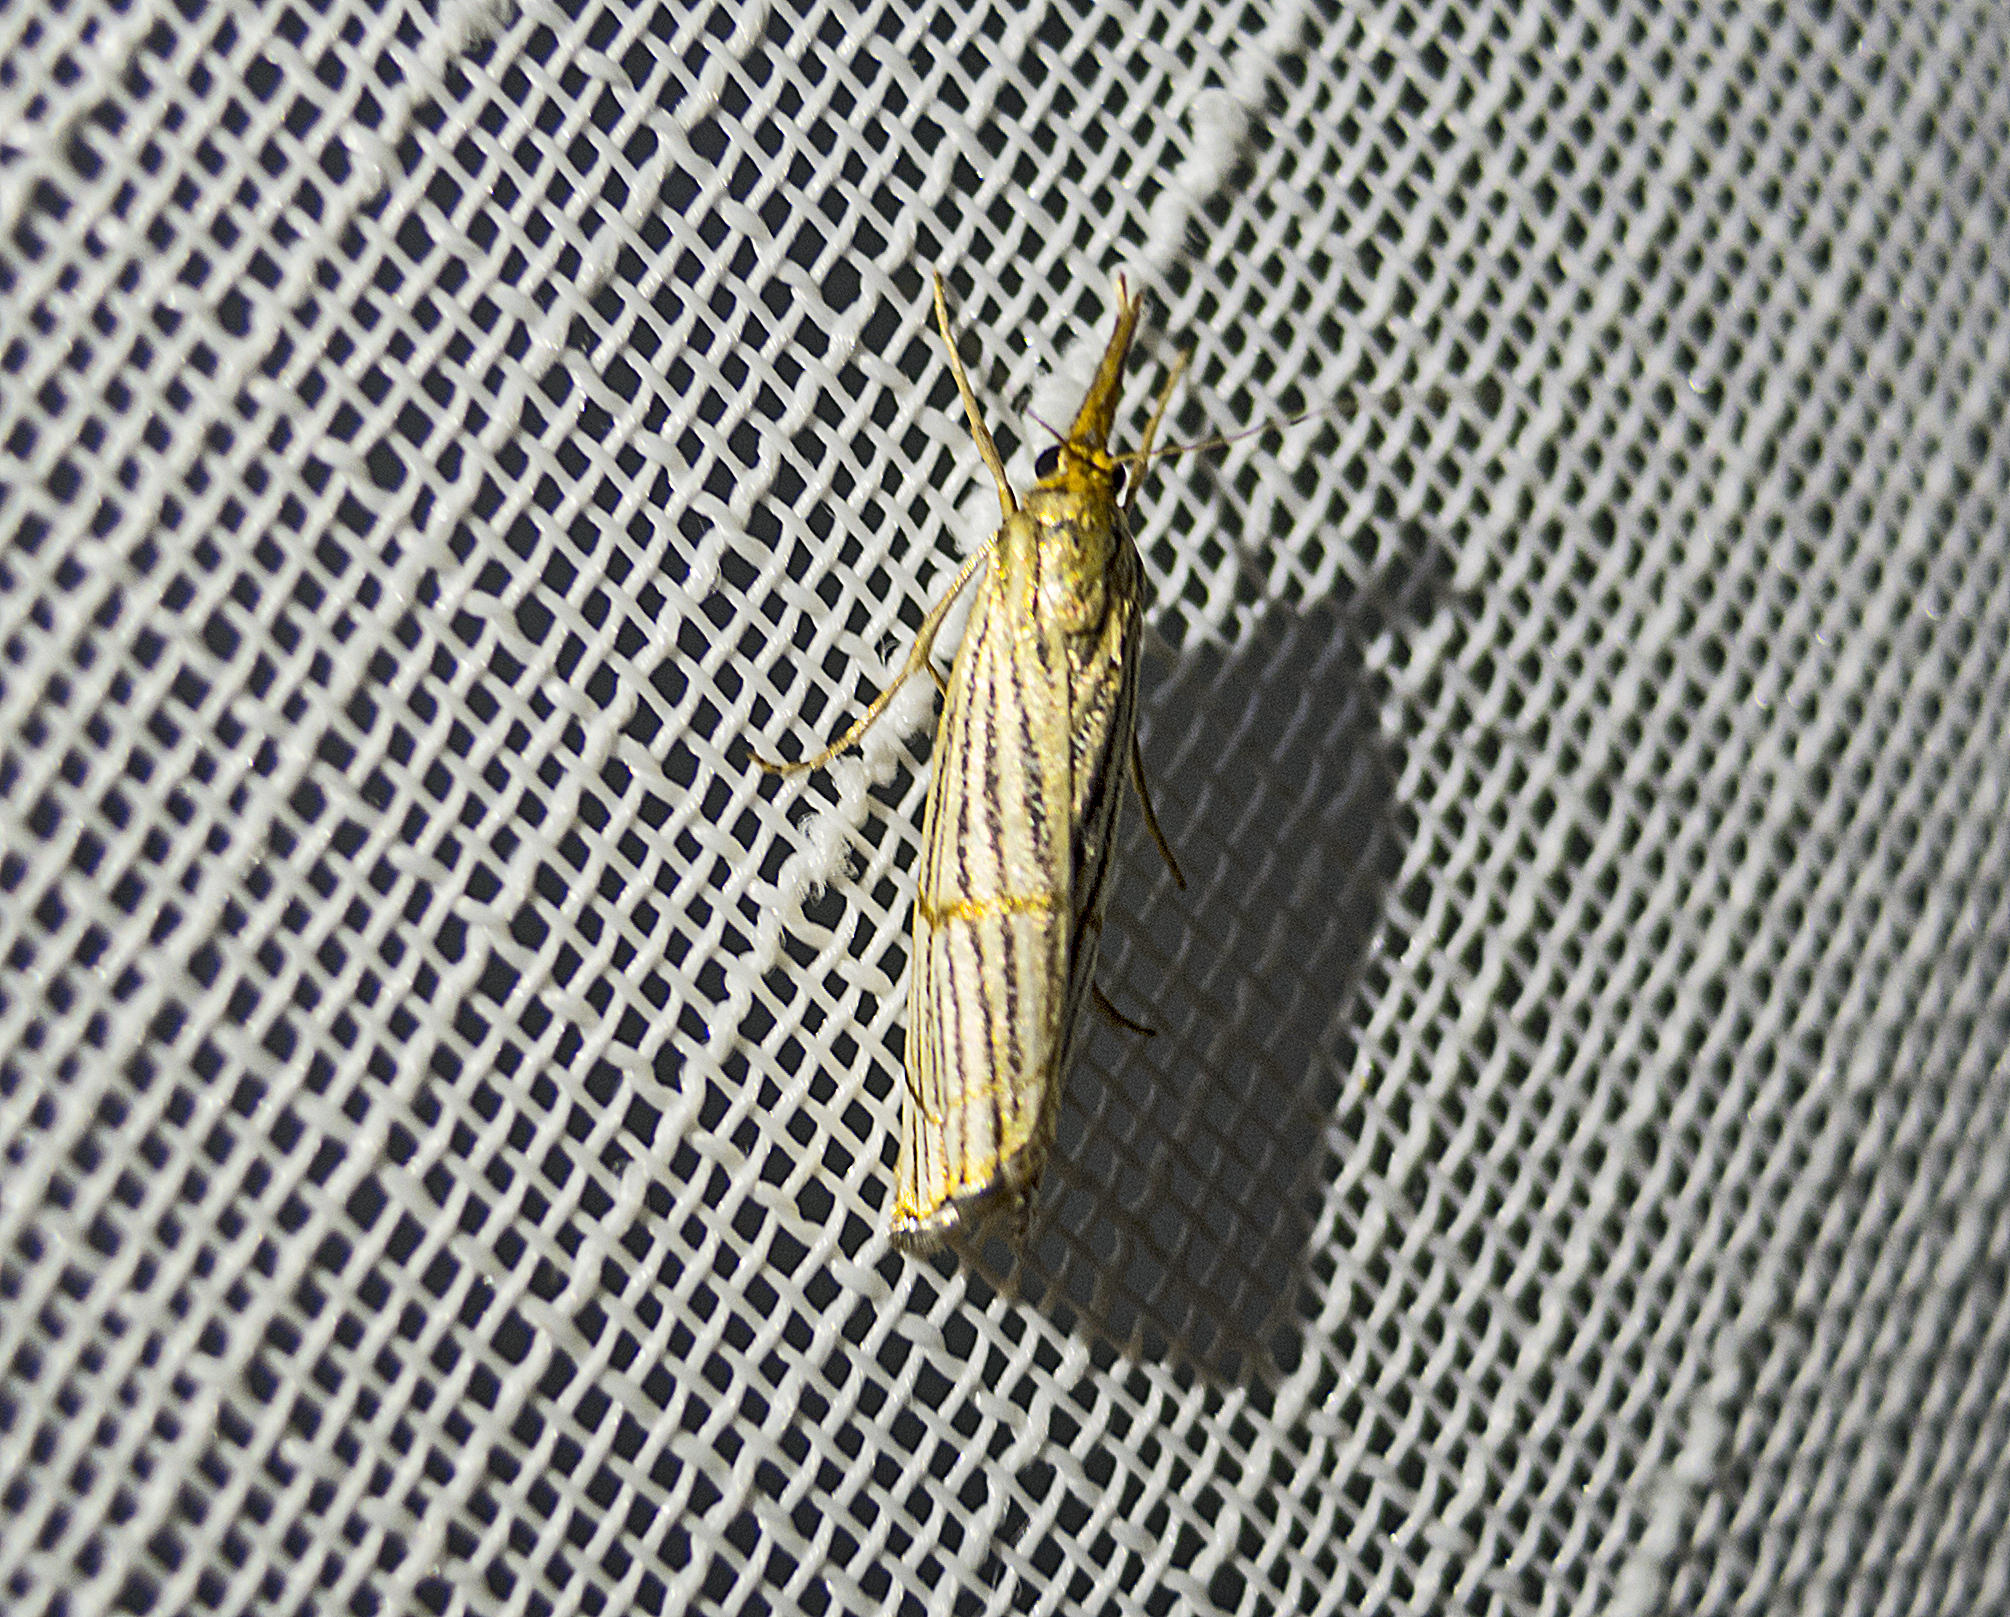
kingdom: Animalia
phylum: Arthropoda
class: Insecta
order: Lepidoptera
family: Crambidae
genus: Chrysocrambus
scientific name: Chrysocrambus linetella
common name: Orange-bar grass-veneer
